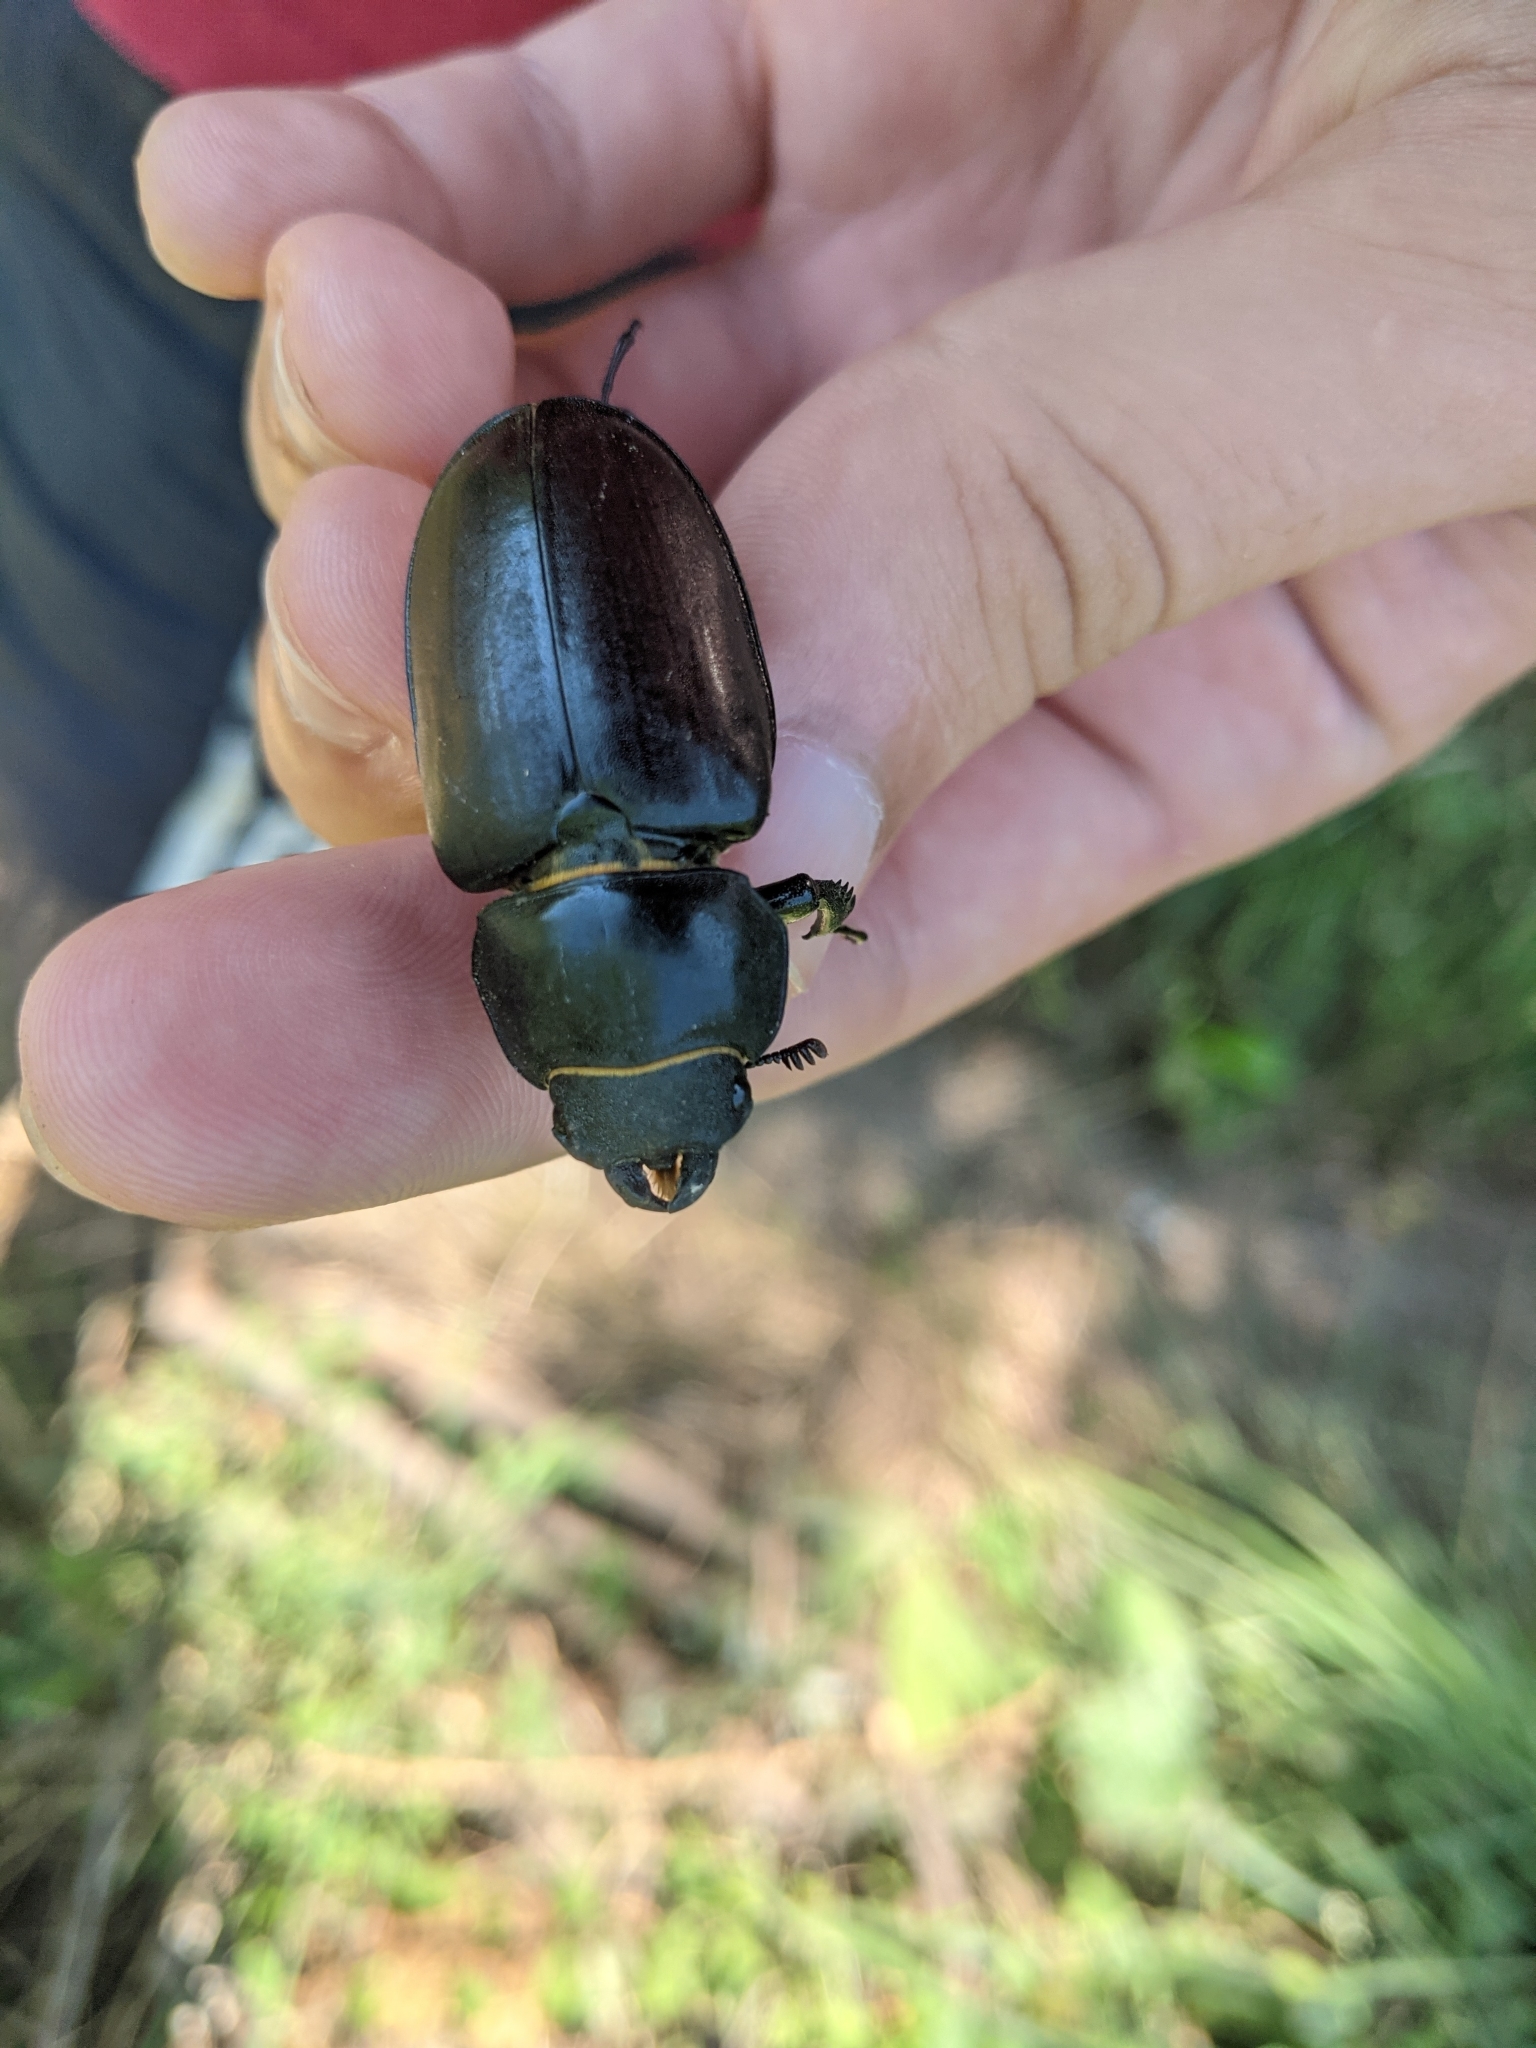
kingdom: Animalia
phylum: Arthropoda
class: Insecta
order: Coleoptera
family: Lucanidae
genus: Lucanus
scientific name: Lucanus cervus
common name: Stag beetle
